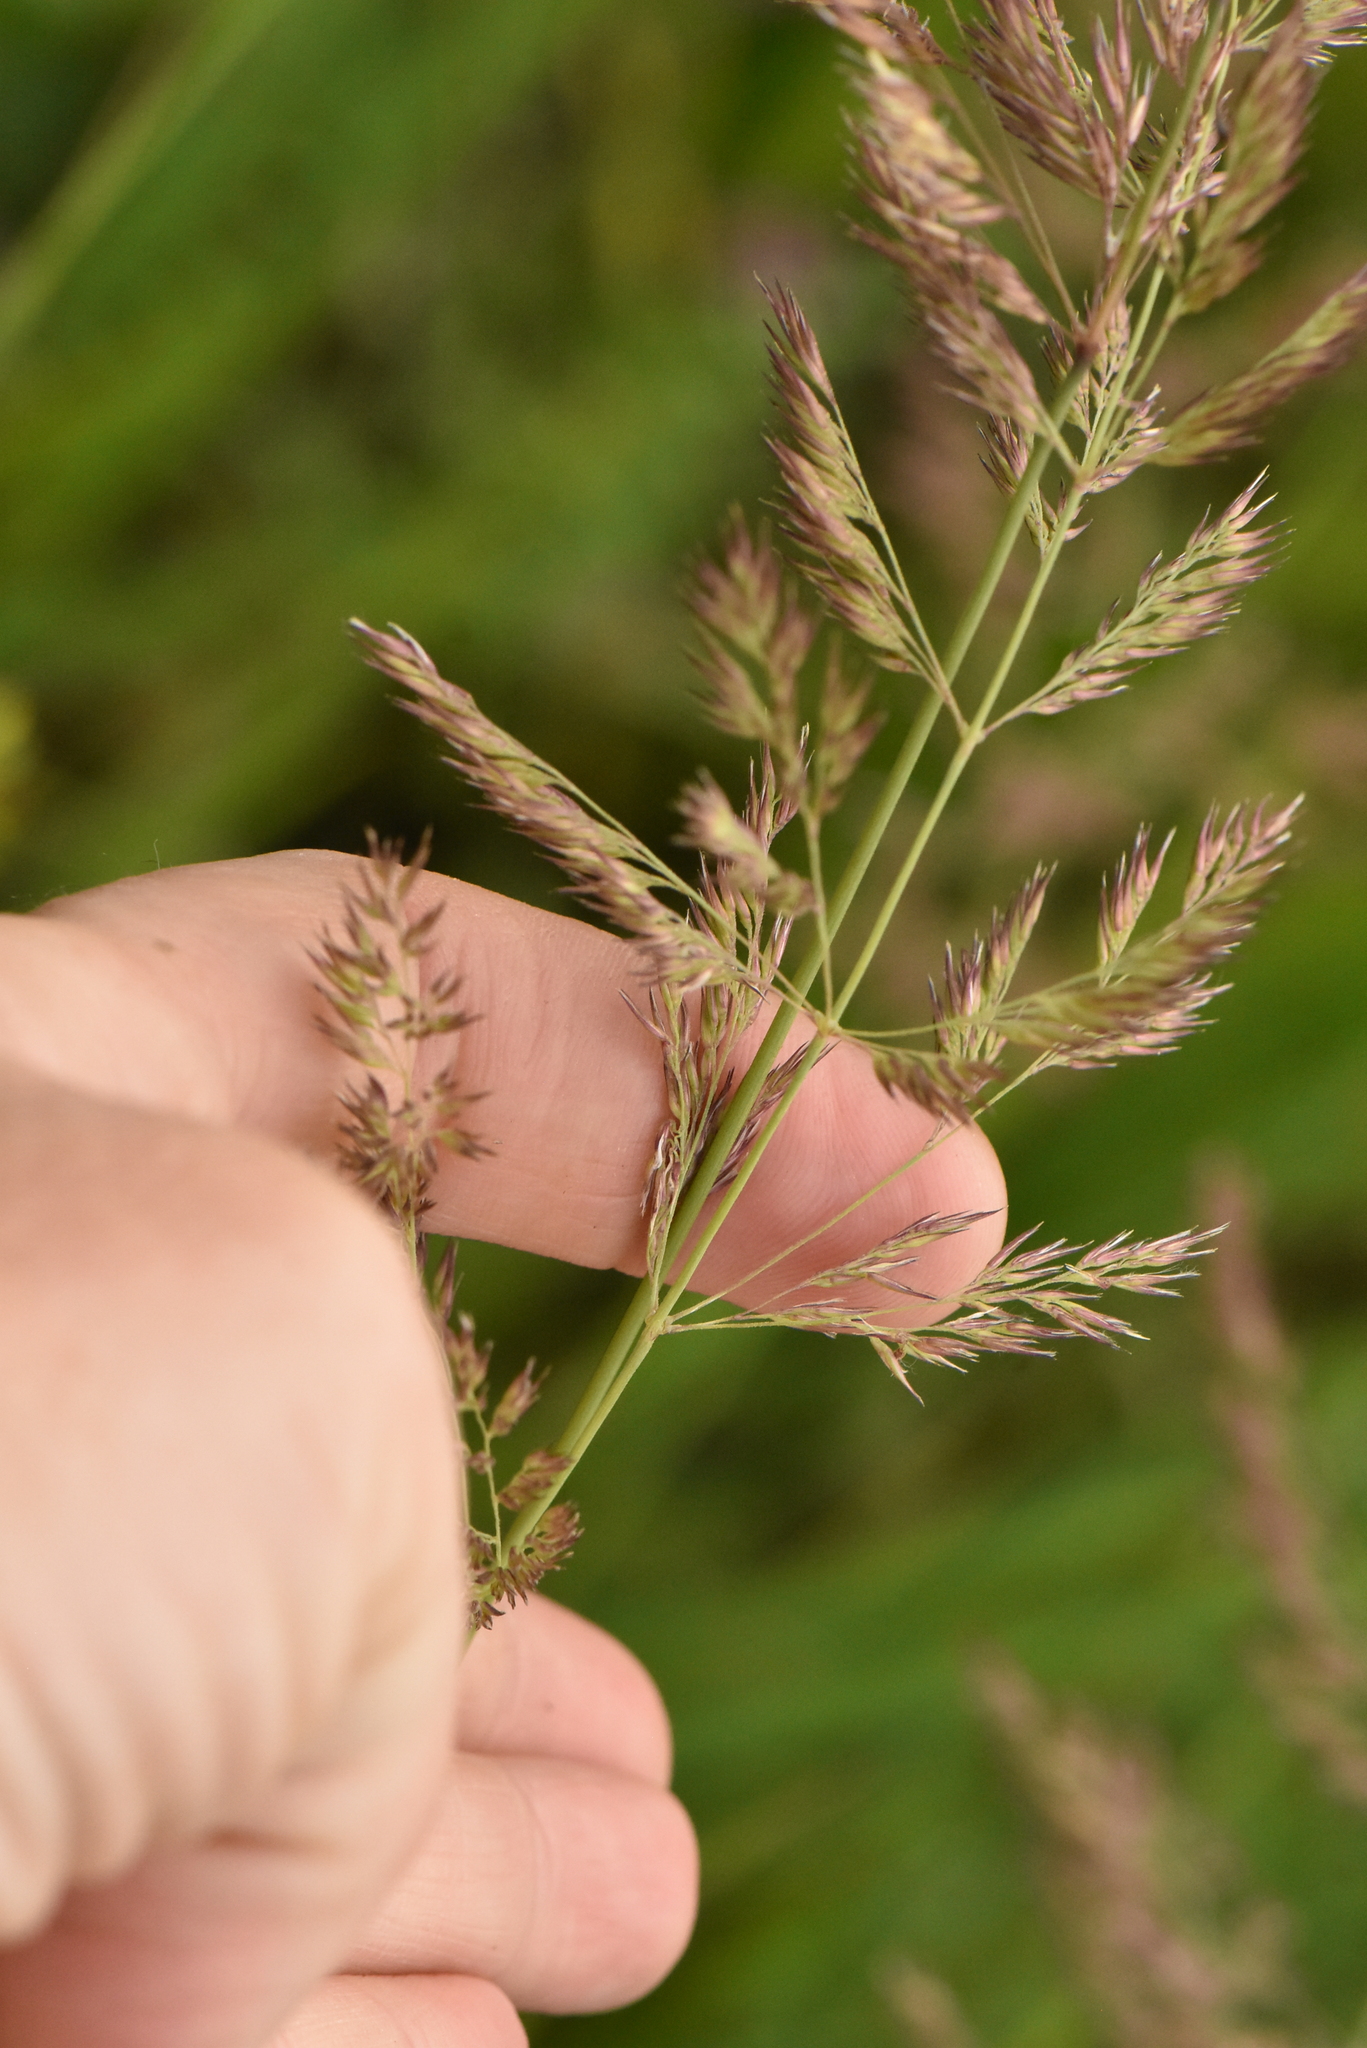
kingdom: Plantae
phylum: Tracheophyta
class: Liliopsida
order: Poales
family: Poaceae
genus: Calamagrostis
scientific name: Calamagrostis epigejos
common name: Wood small-reed
